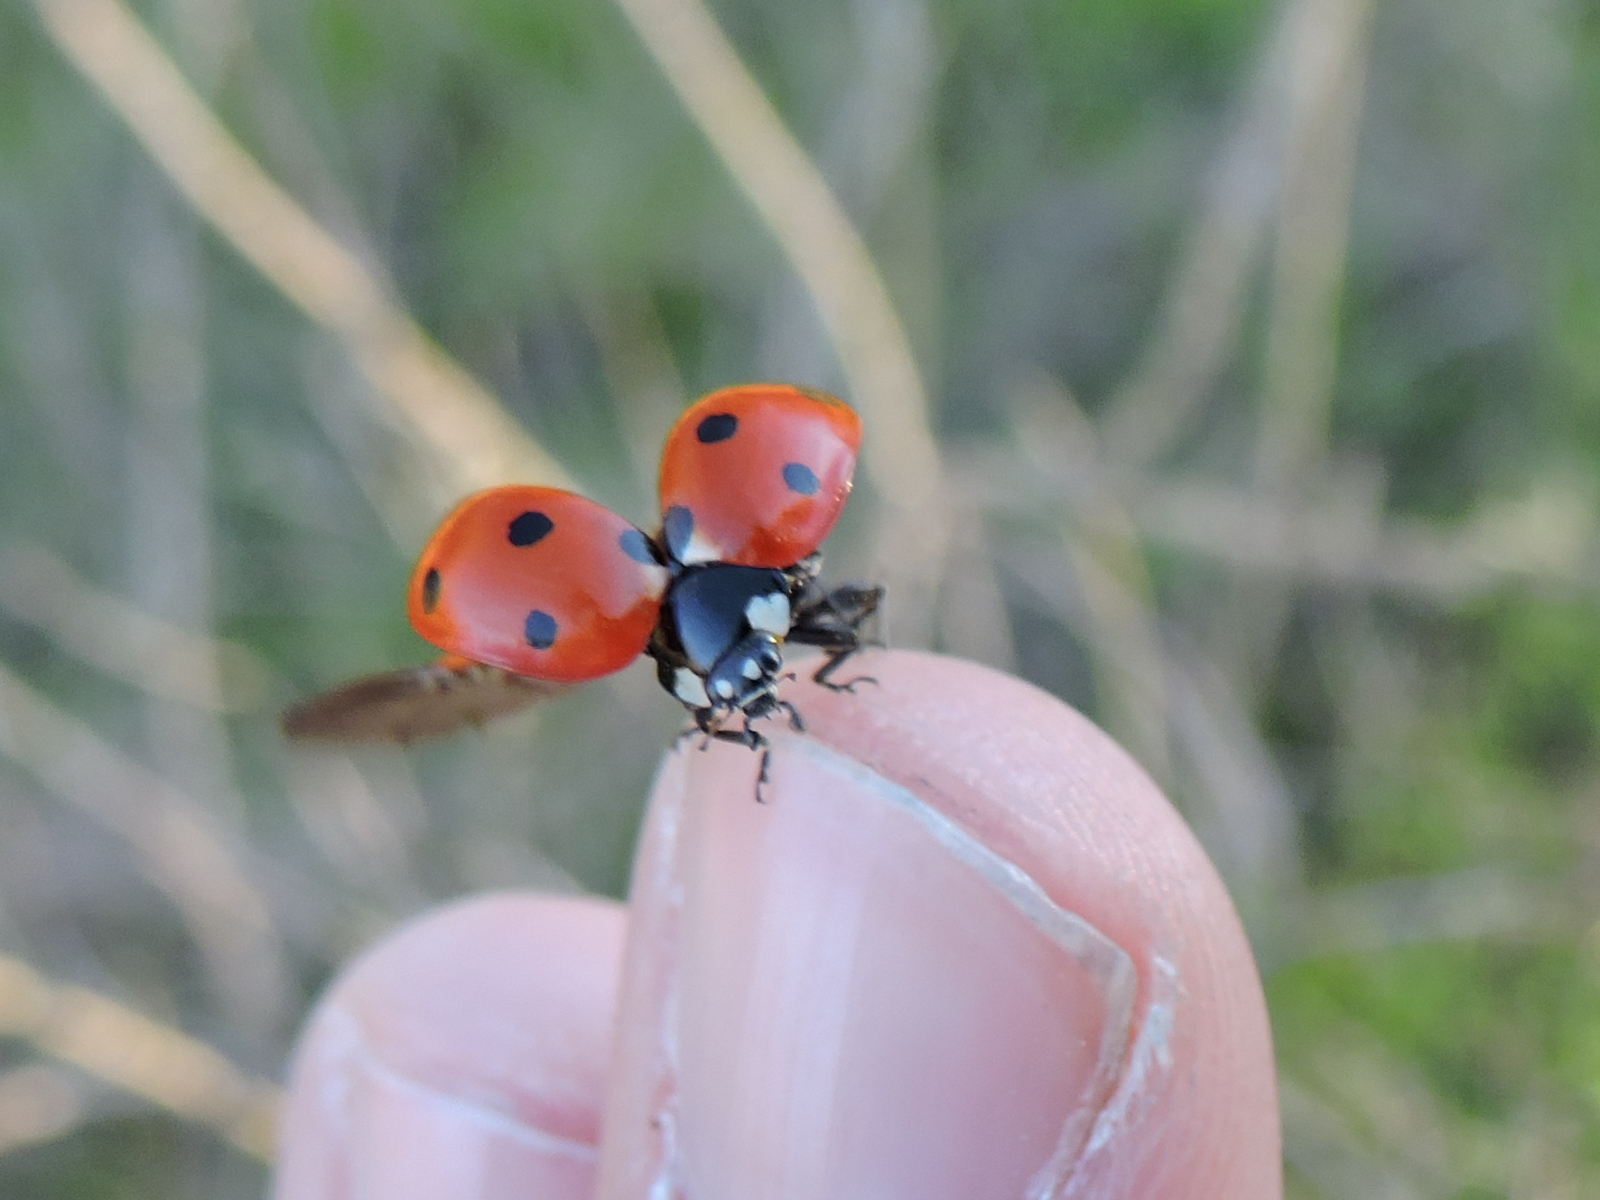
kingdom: Animalia
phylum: Arthropoda
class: Insecta
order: Coleoptera
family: Coccinellidae
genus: Coccinella
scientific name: Coccinella septempunctata
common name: Sevenspotted lady beetle
